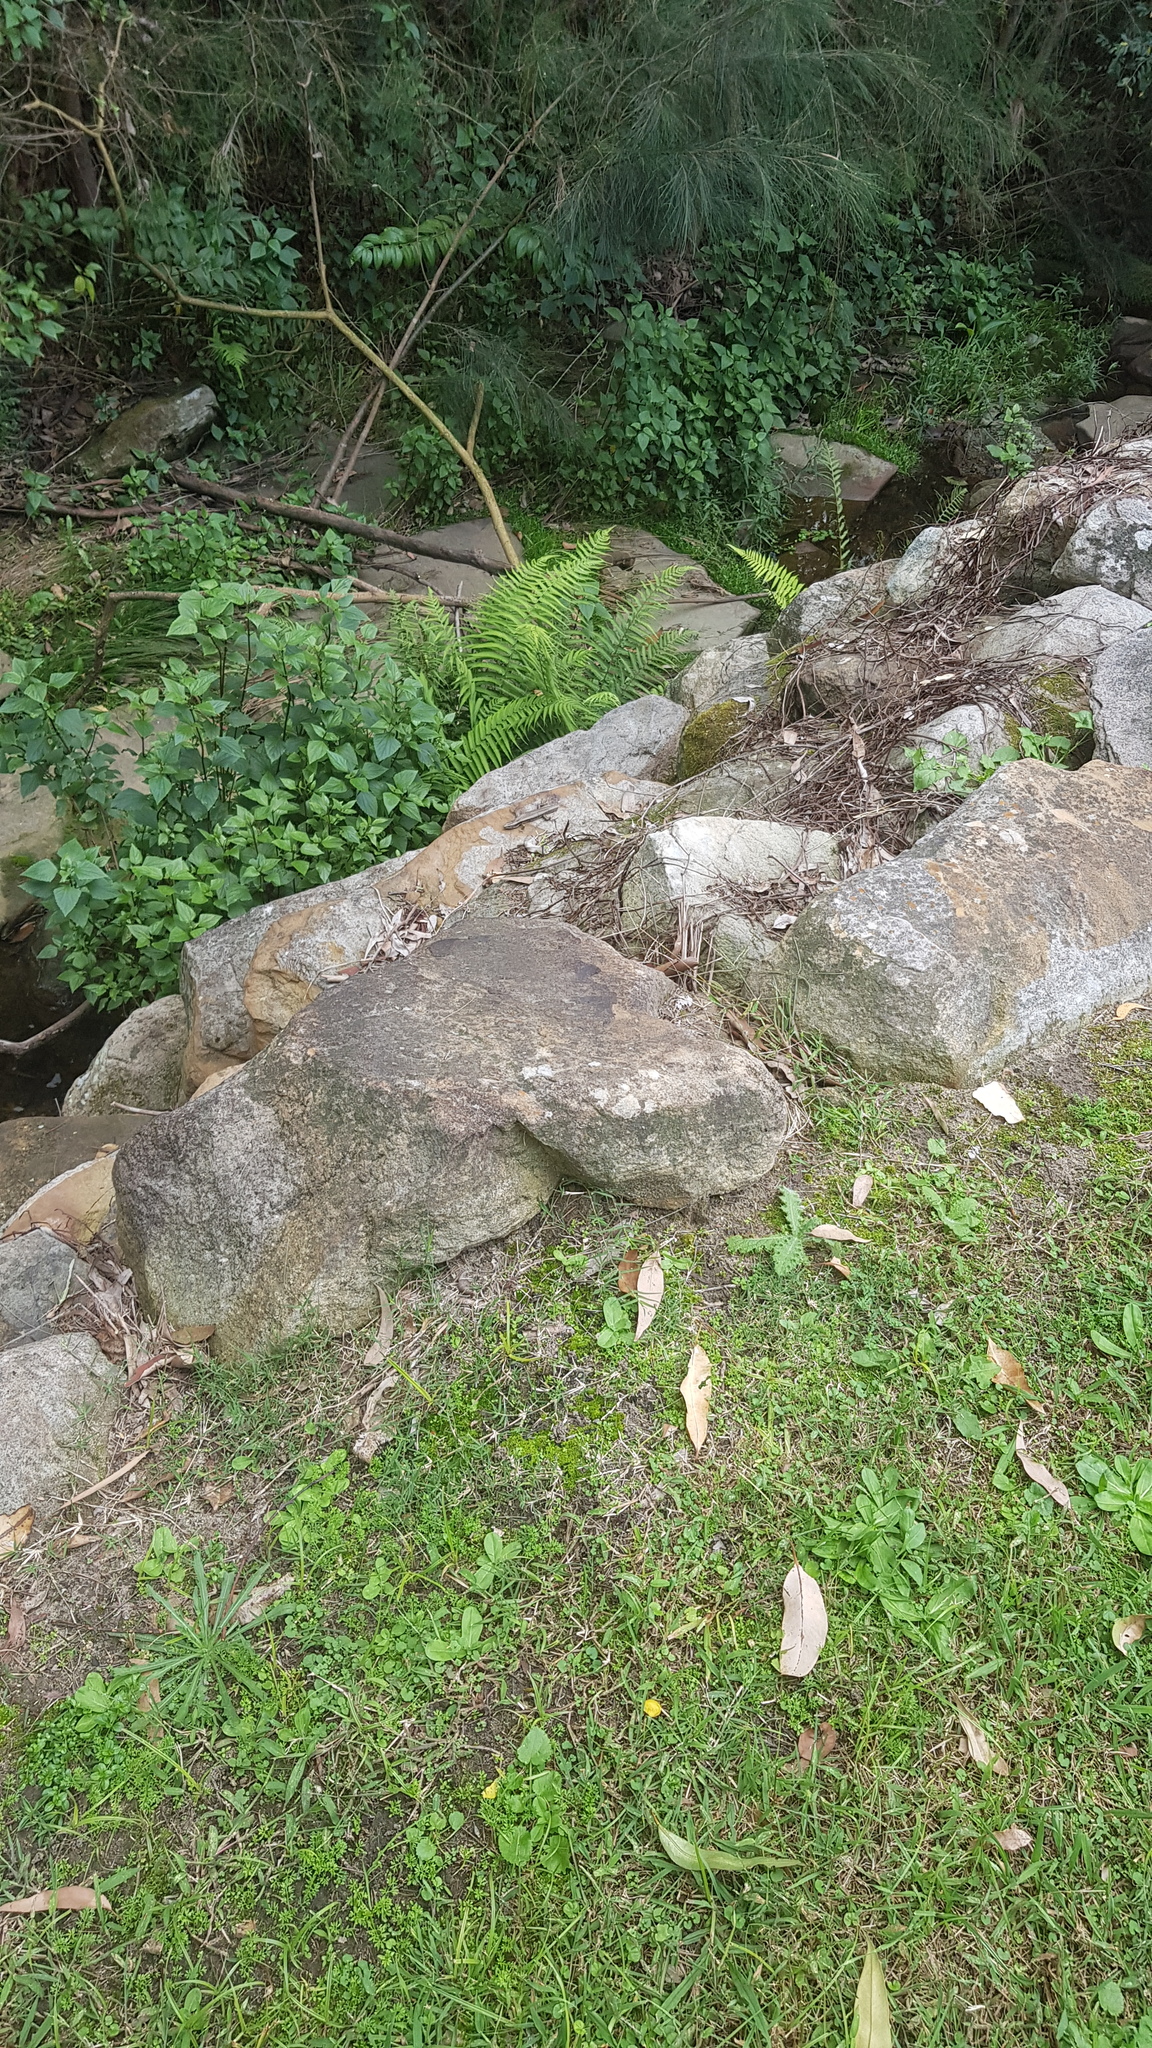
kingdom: Animalia
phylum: Chordata
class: Squamata
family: Scincidae
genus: Eulamprus
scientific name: Eulamprus quoyii
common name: Eastern water skink
